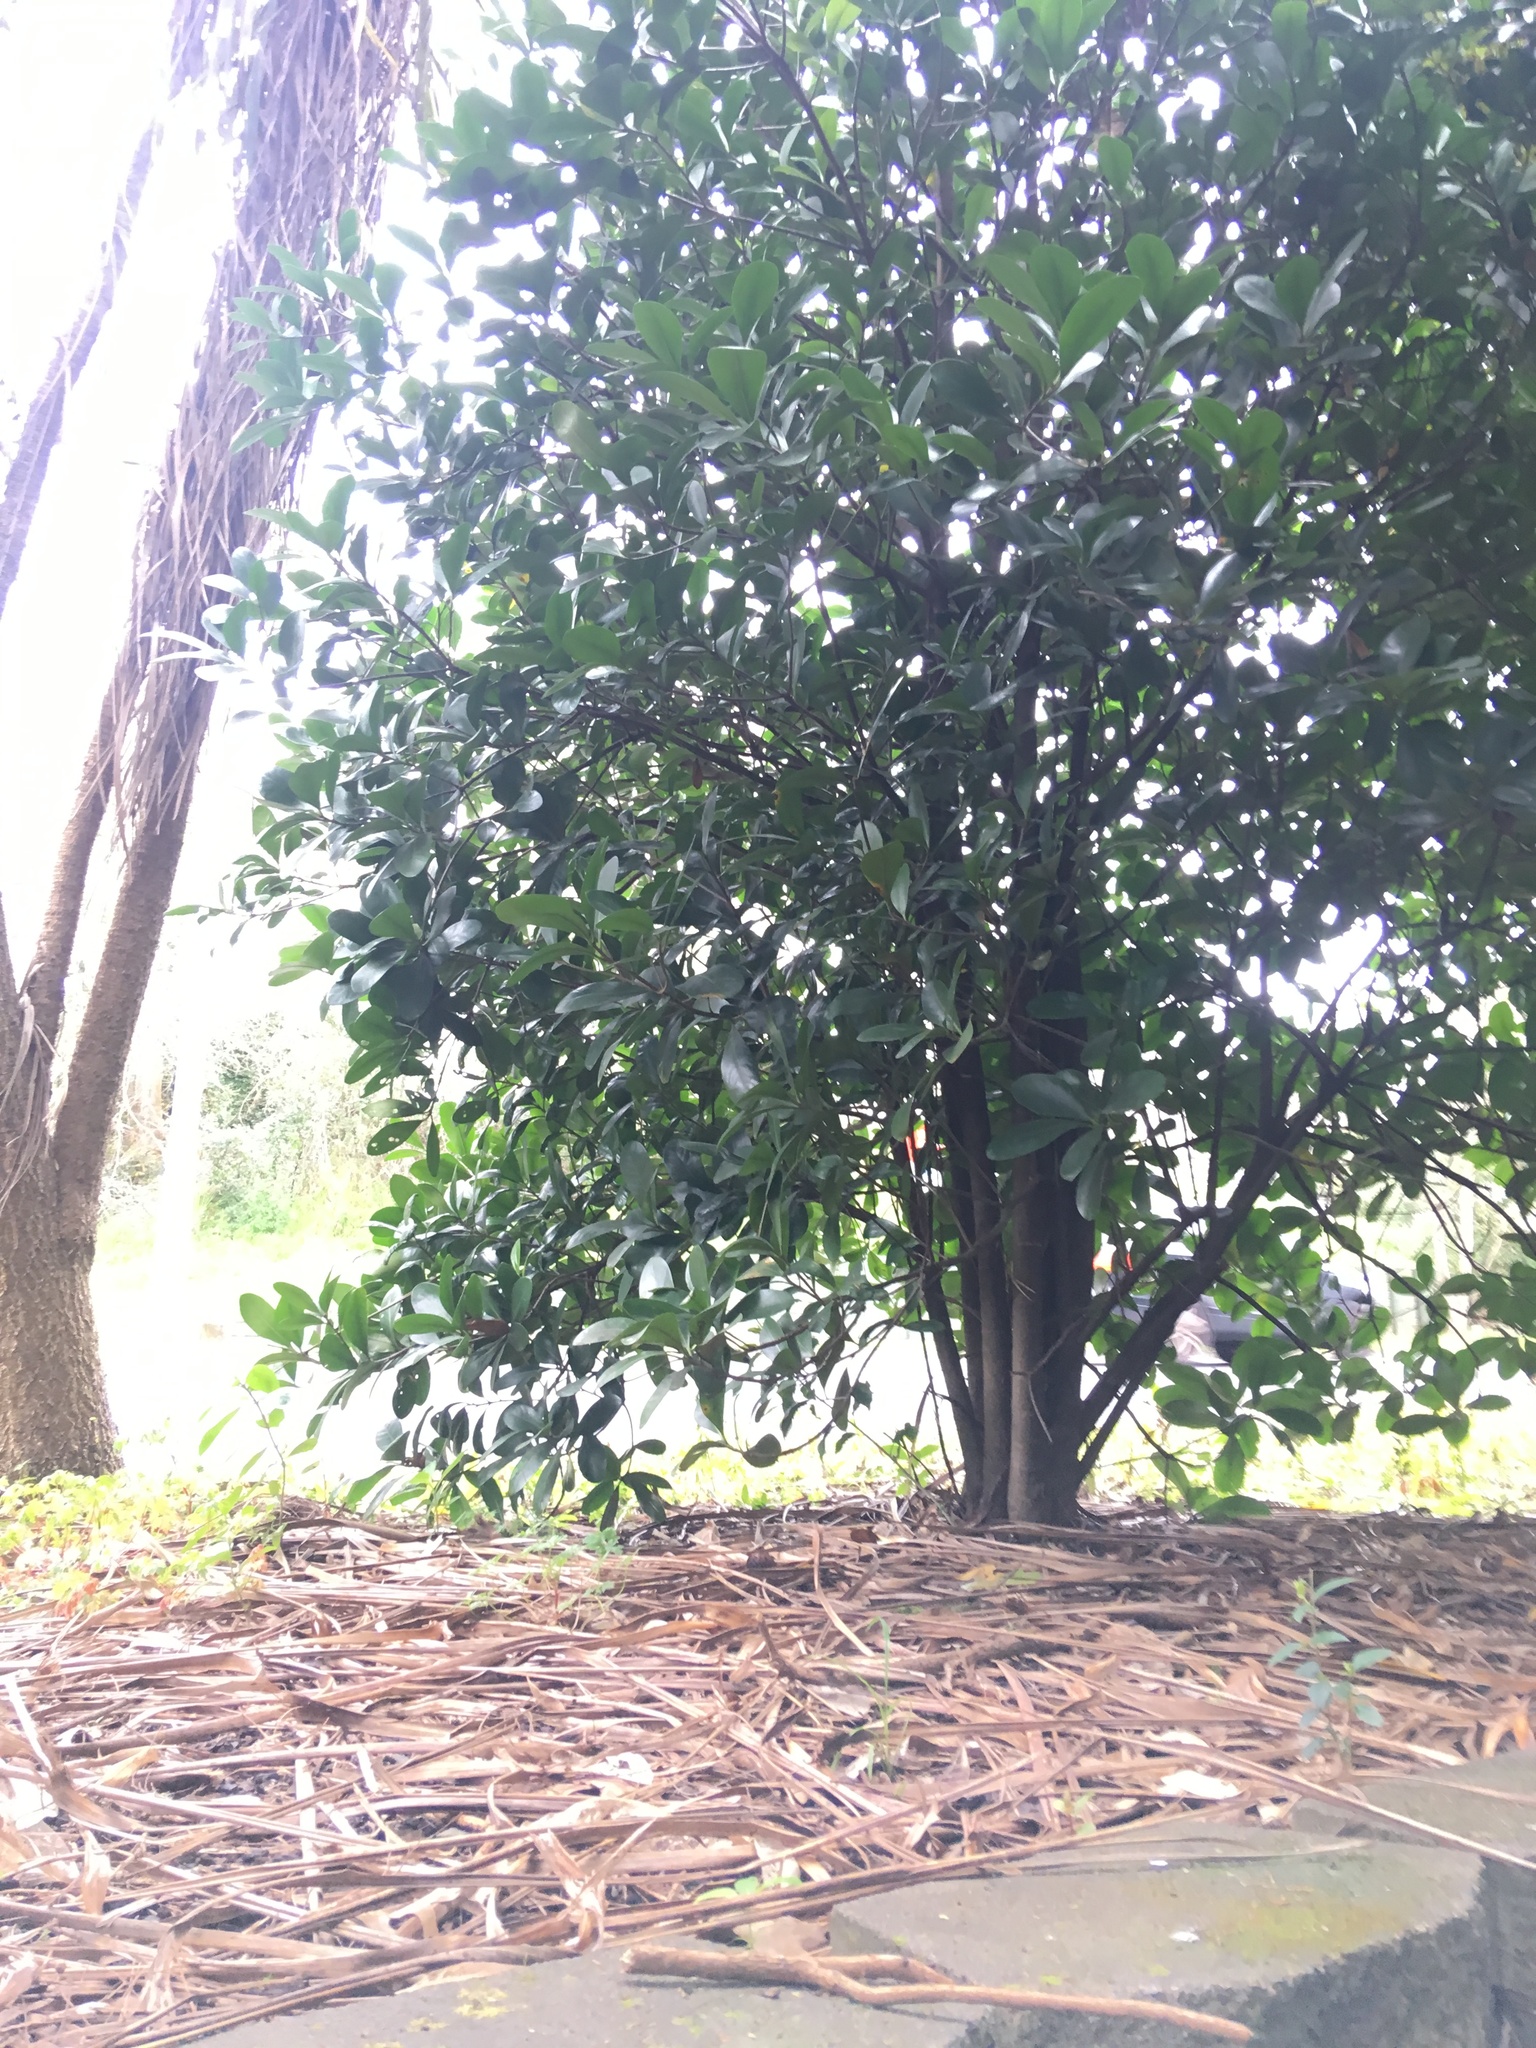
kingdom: Plantae
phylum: Tracheophyta
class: Magnoliopsida
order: Cucurbitales
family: Corynocarpaceae
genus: Corynocarpus
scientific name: Corynocarpus laevigatus
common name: New zealand laurel
